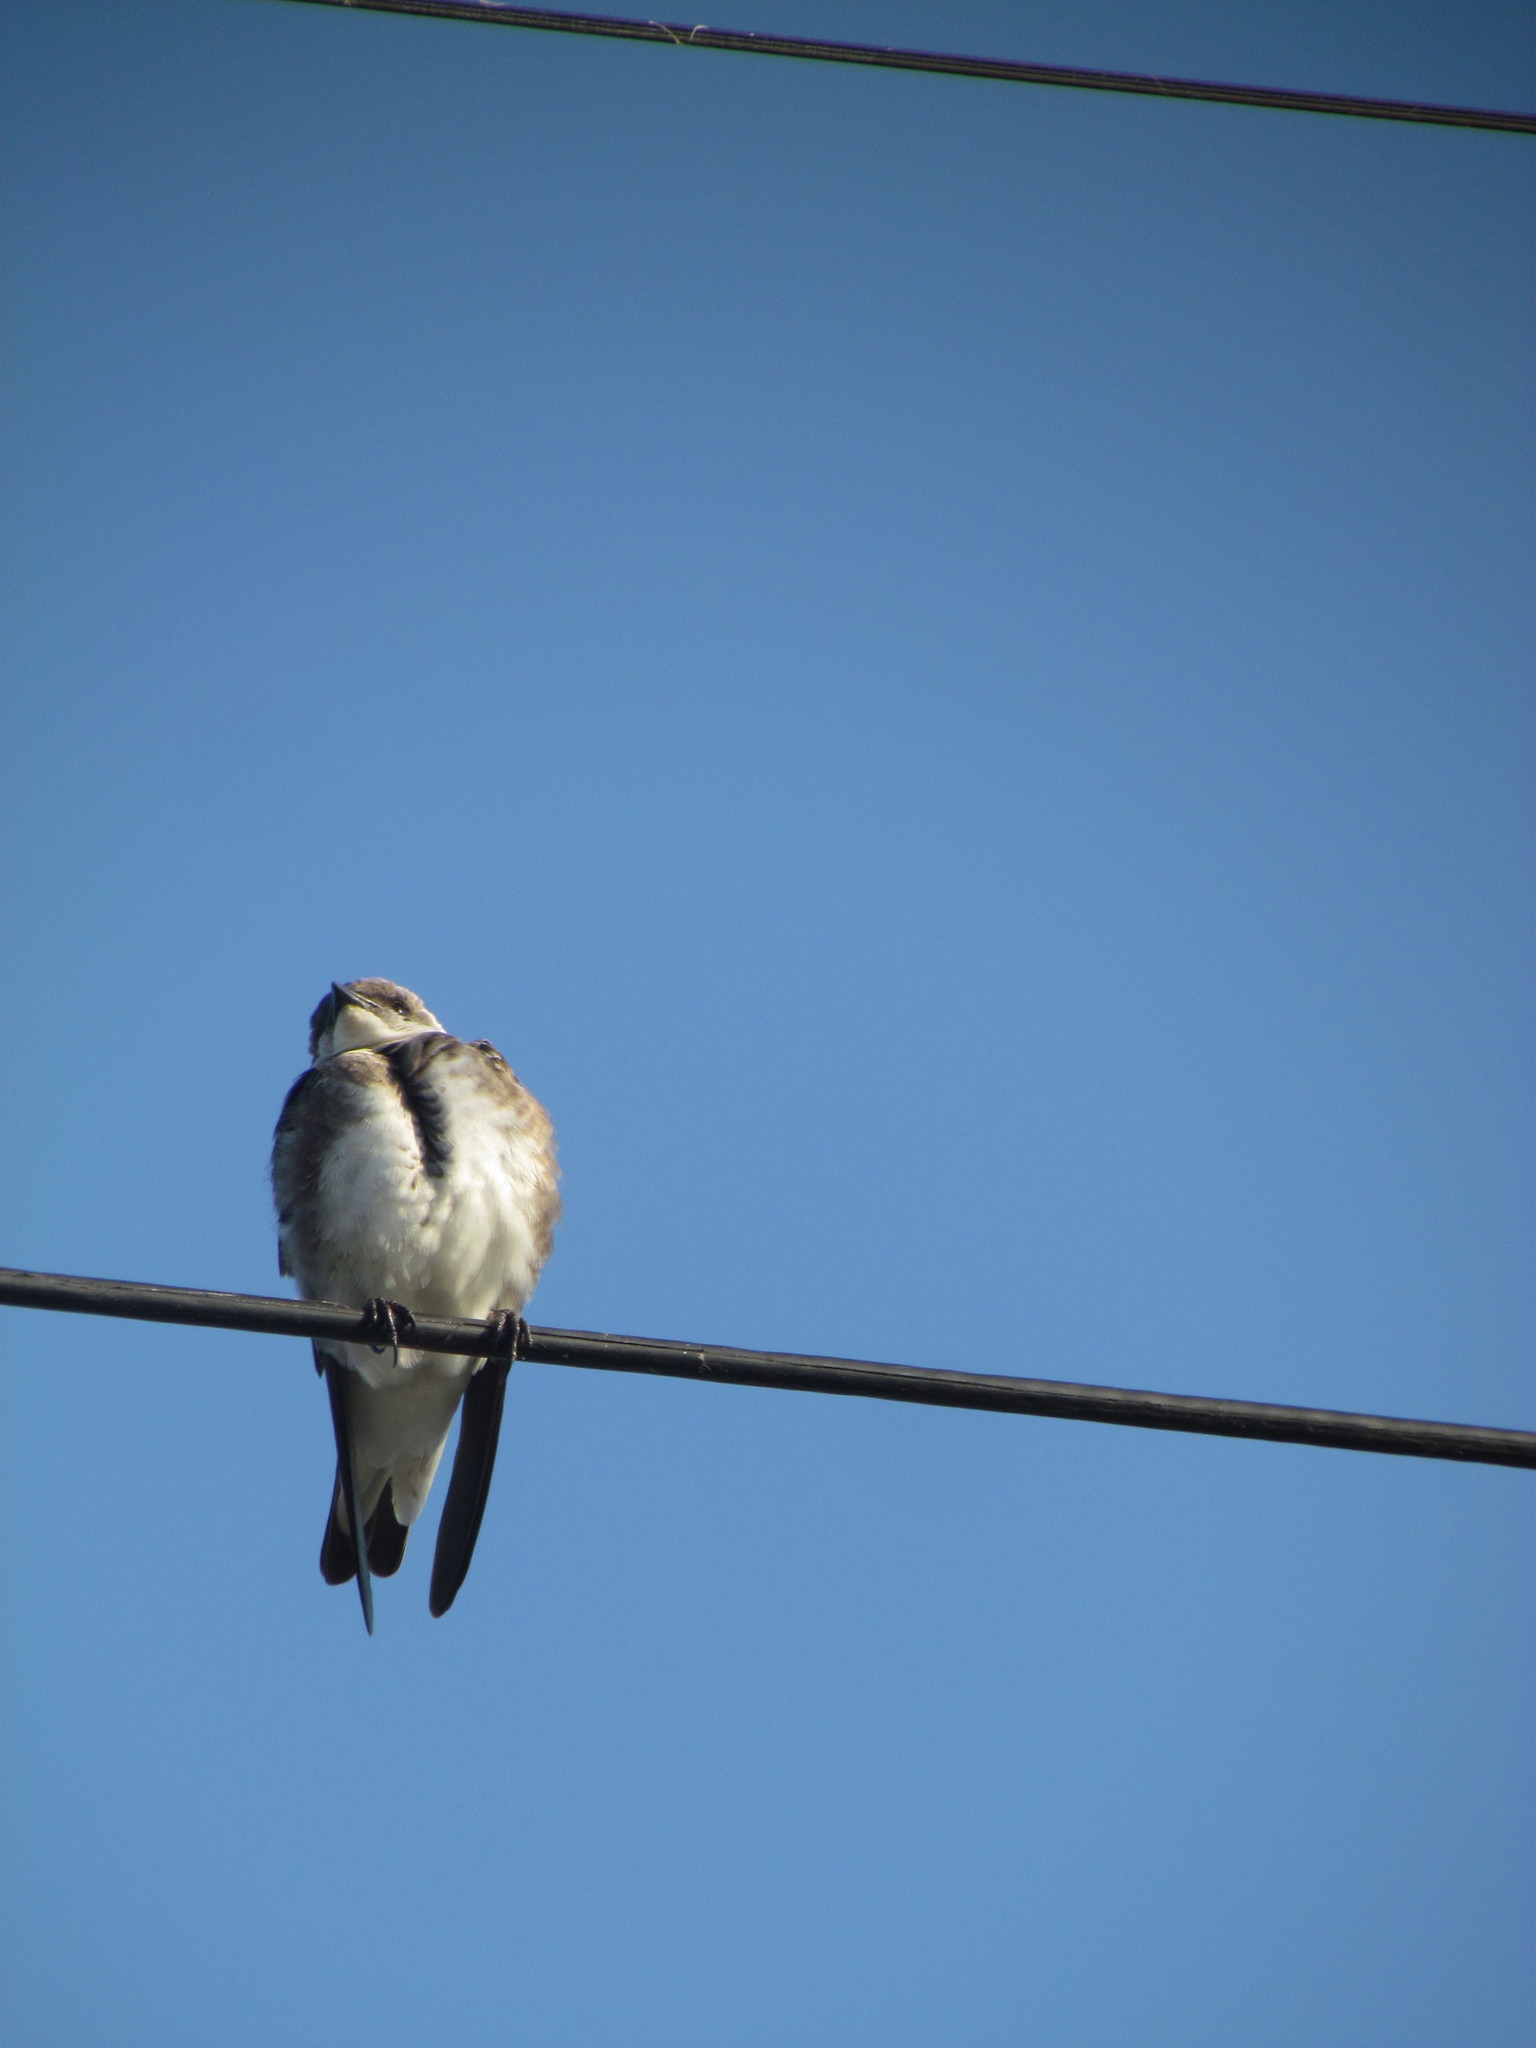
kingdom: Animalia
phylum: Chordata
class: Aves
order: Passeriformes
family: Hirundinidae
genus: Progne
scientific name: Progne tapera
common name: Brown-chested martin
